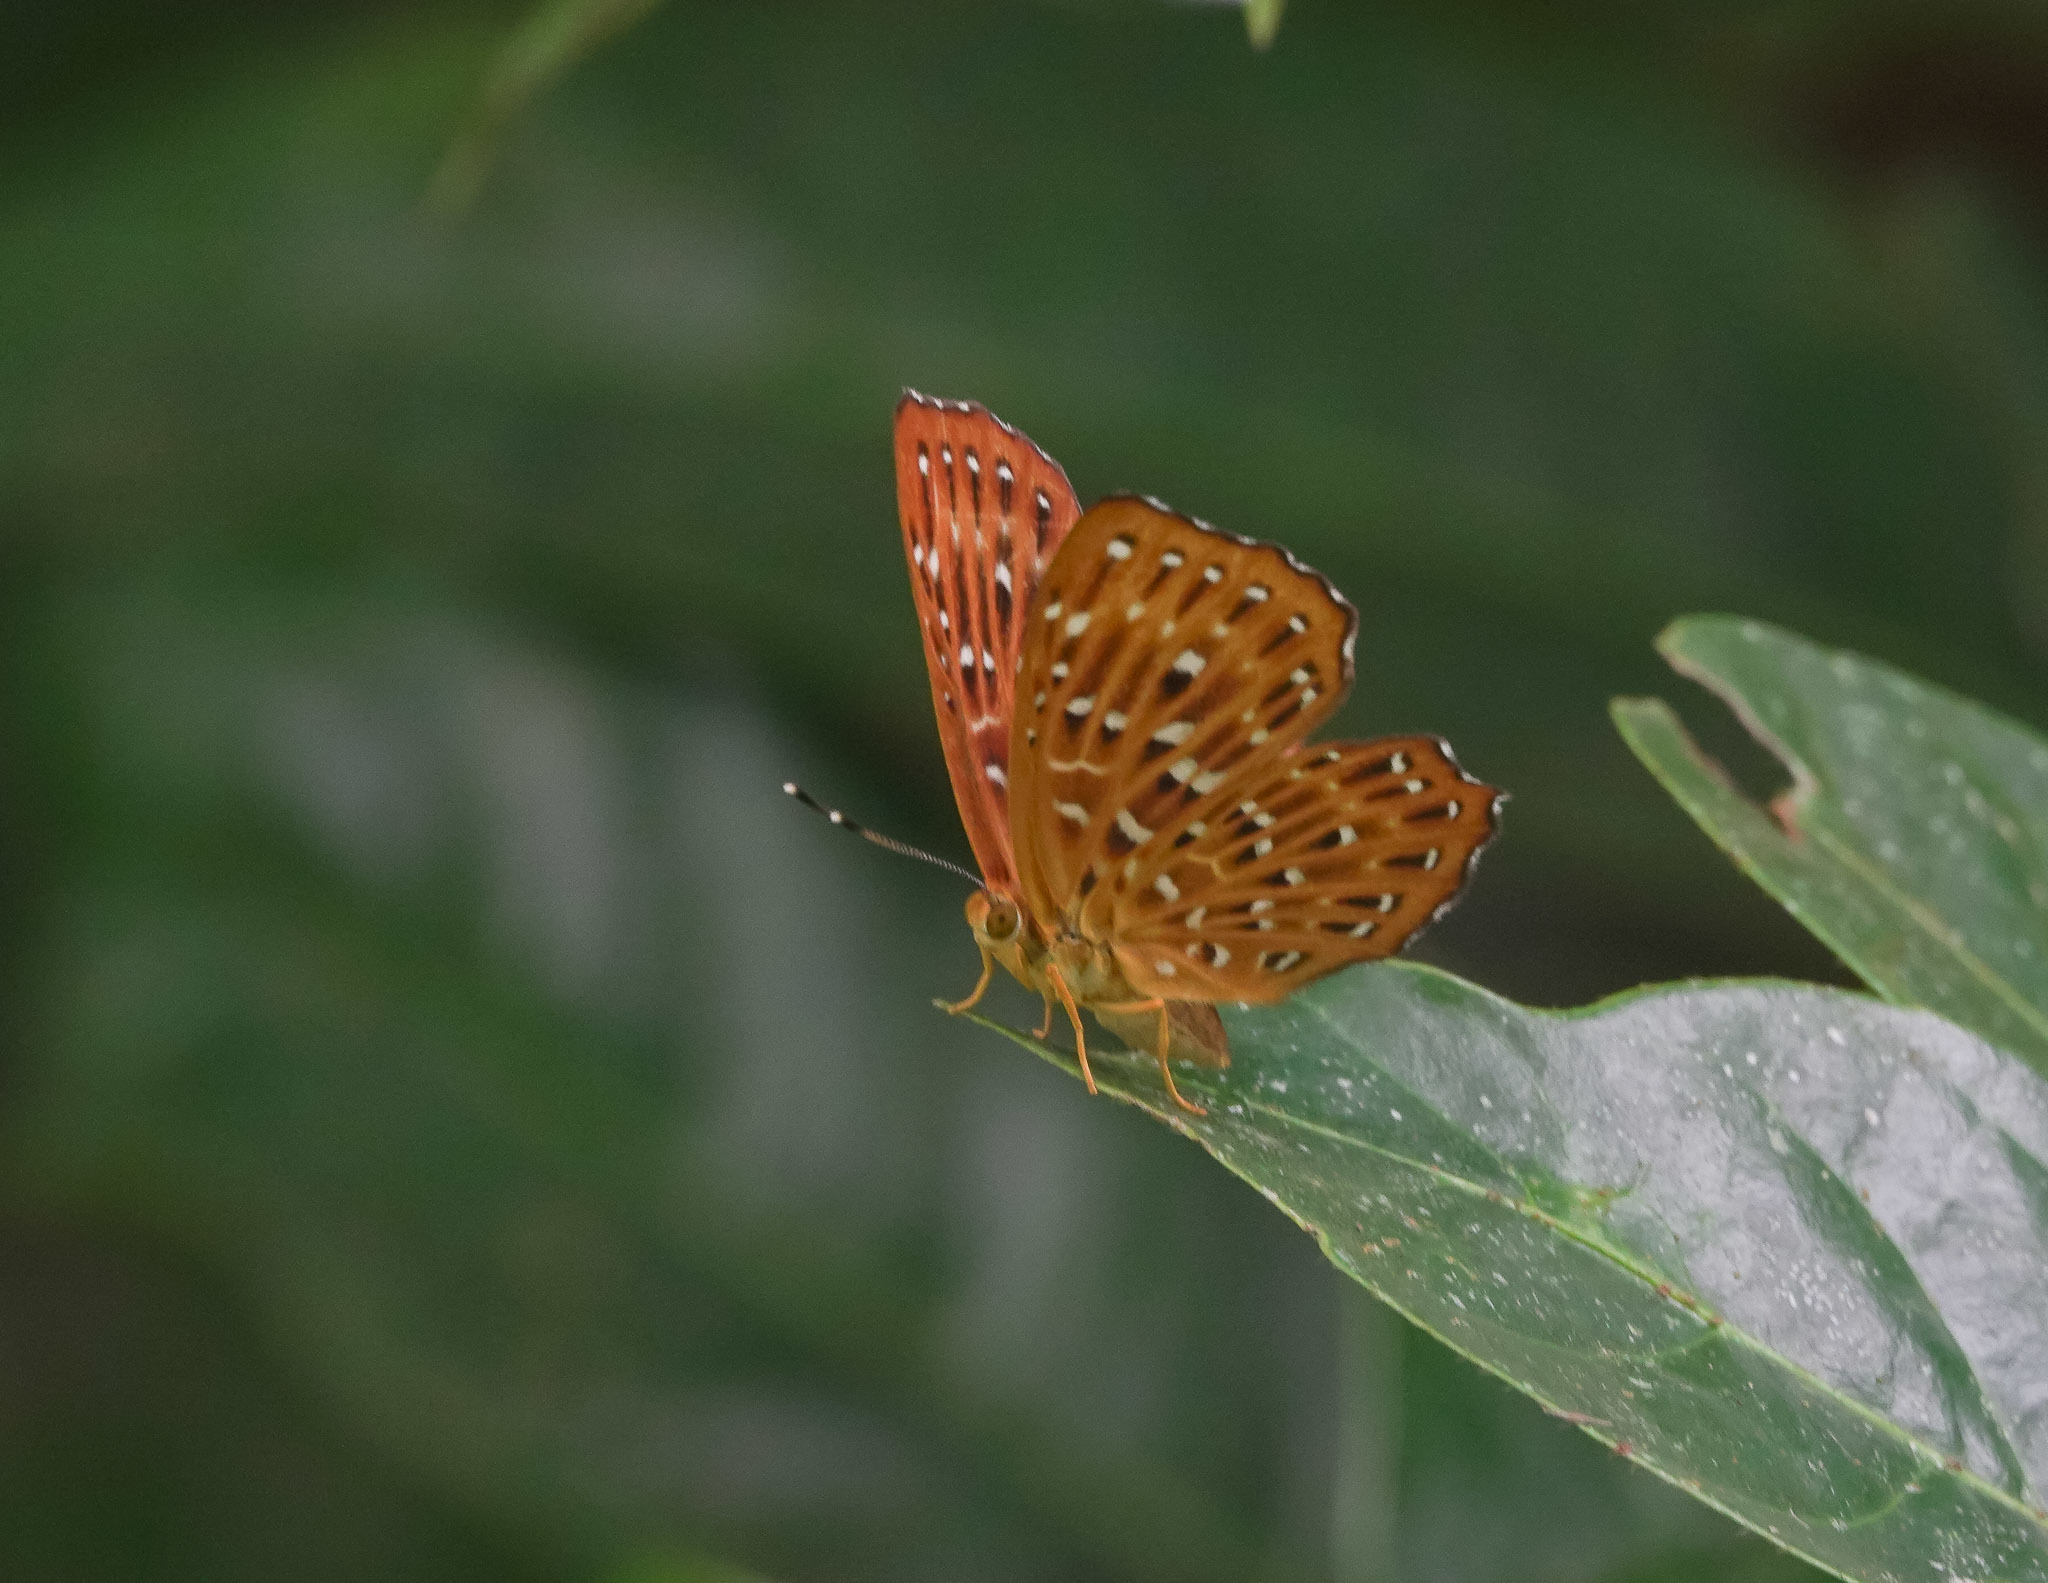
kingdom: Animalia
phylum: Arthropoda
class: Insecta
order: Lepidoptera
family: Riodinidae
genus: Zemeros
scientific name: Zemeros flegyas
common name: Punchinello
